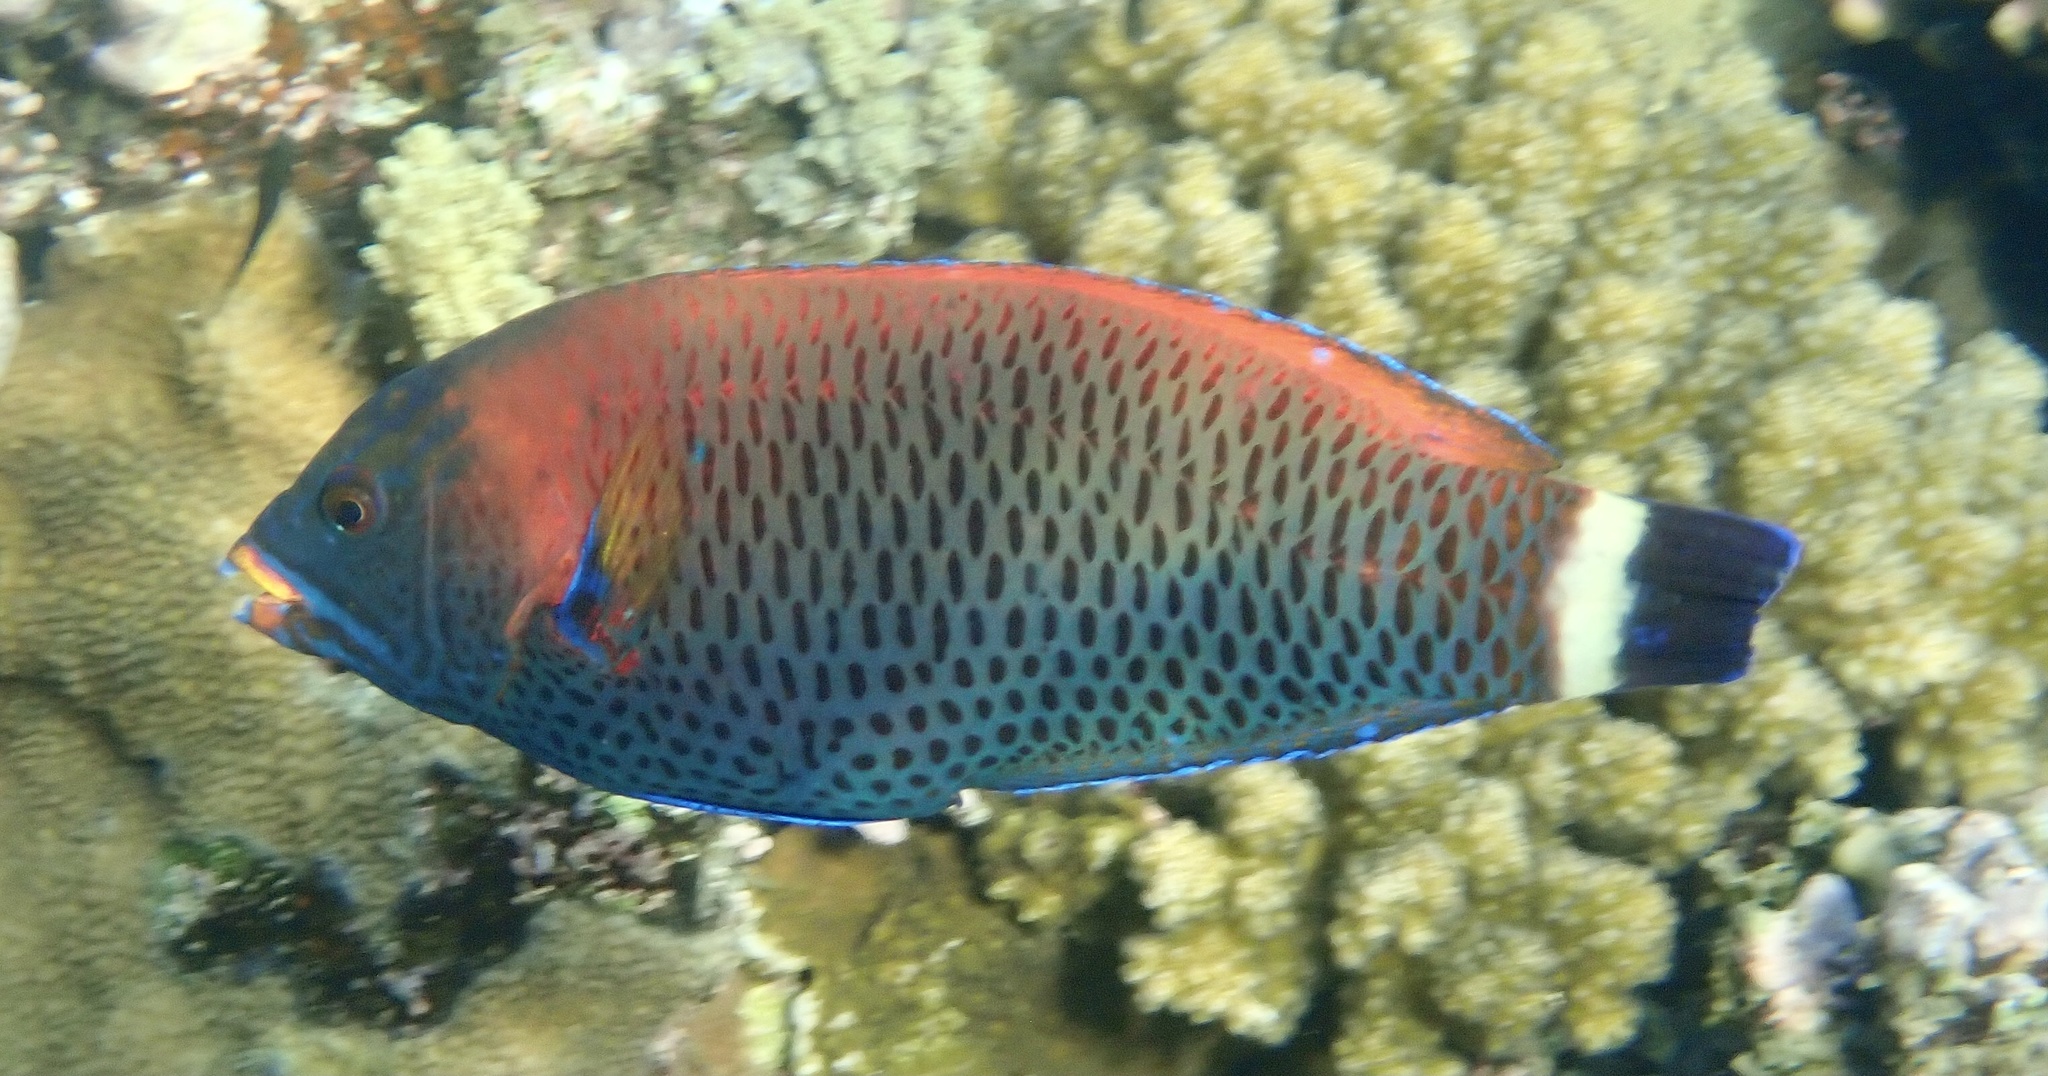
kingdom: Animalia
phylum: Chordata
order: Perciformes
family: Labridae
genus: Pseudodax
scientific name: Pseudodax moluccanus
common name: Chiseltooth wrasse
